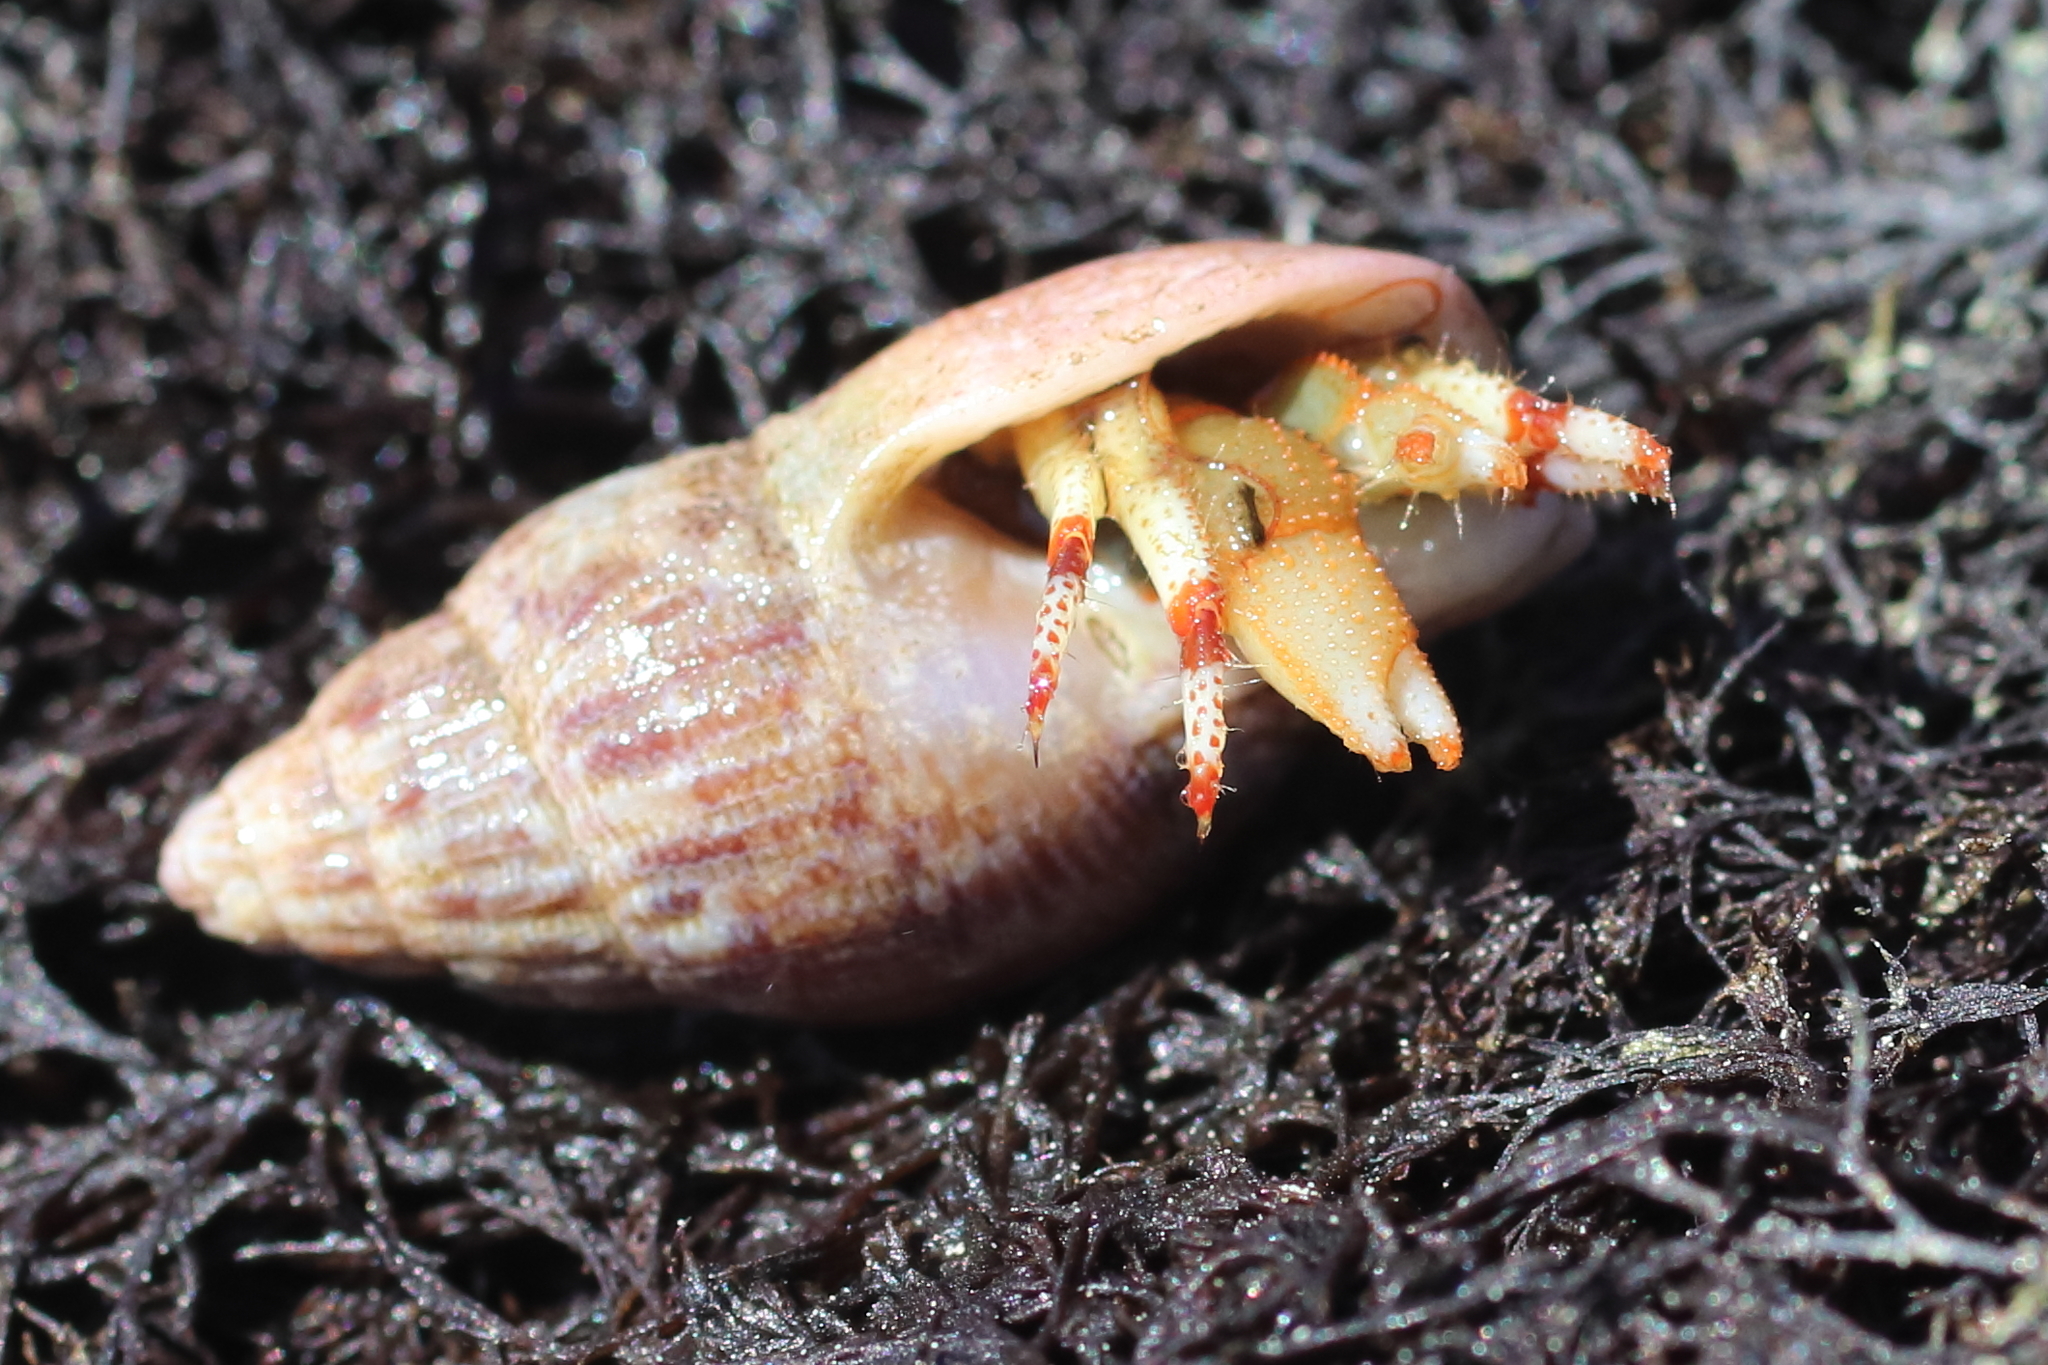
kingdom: Animalia
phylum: Arthropoda
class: Malacostraca
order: Decapoda
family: Paguridae
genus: Pagurus
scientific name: Pagurus beringanus
